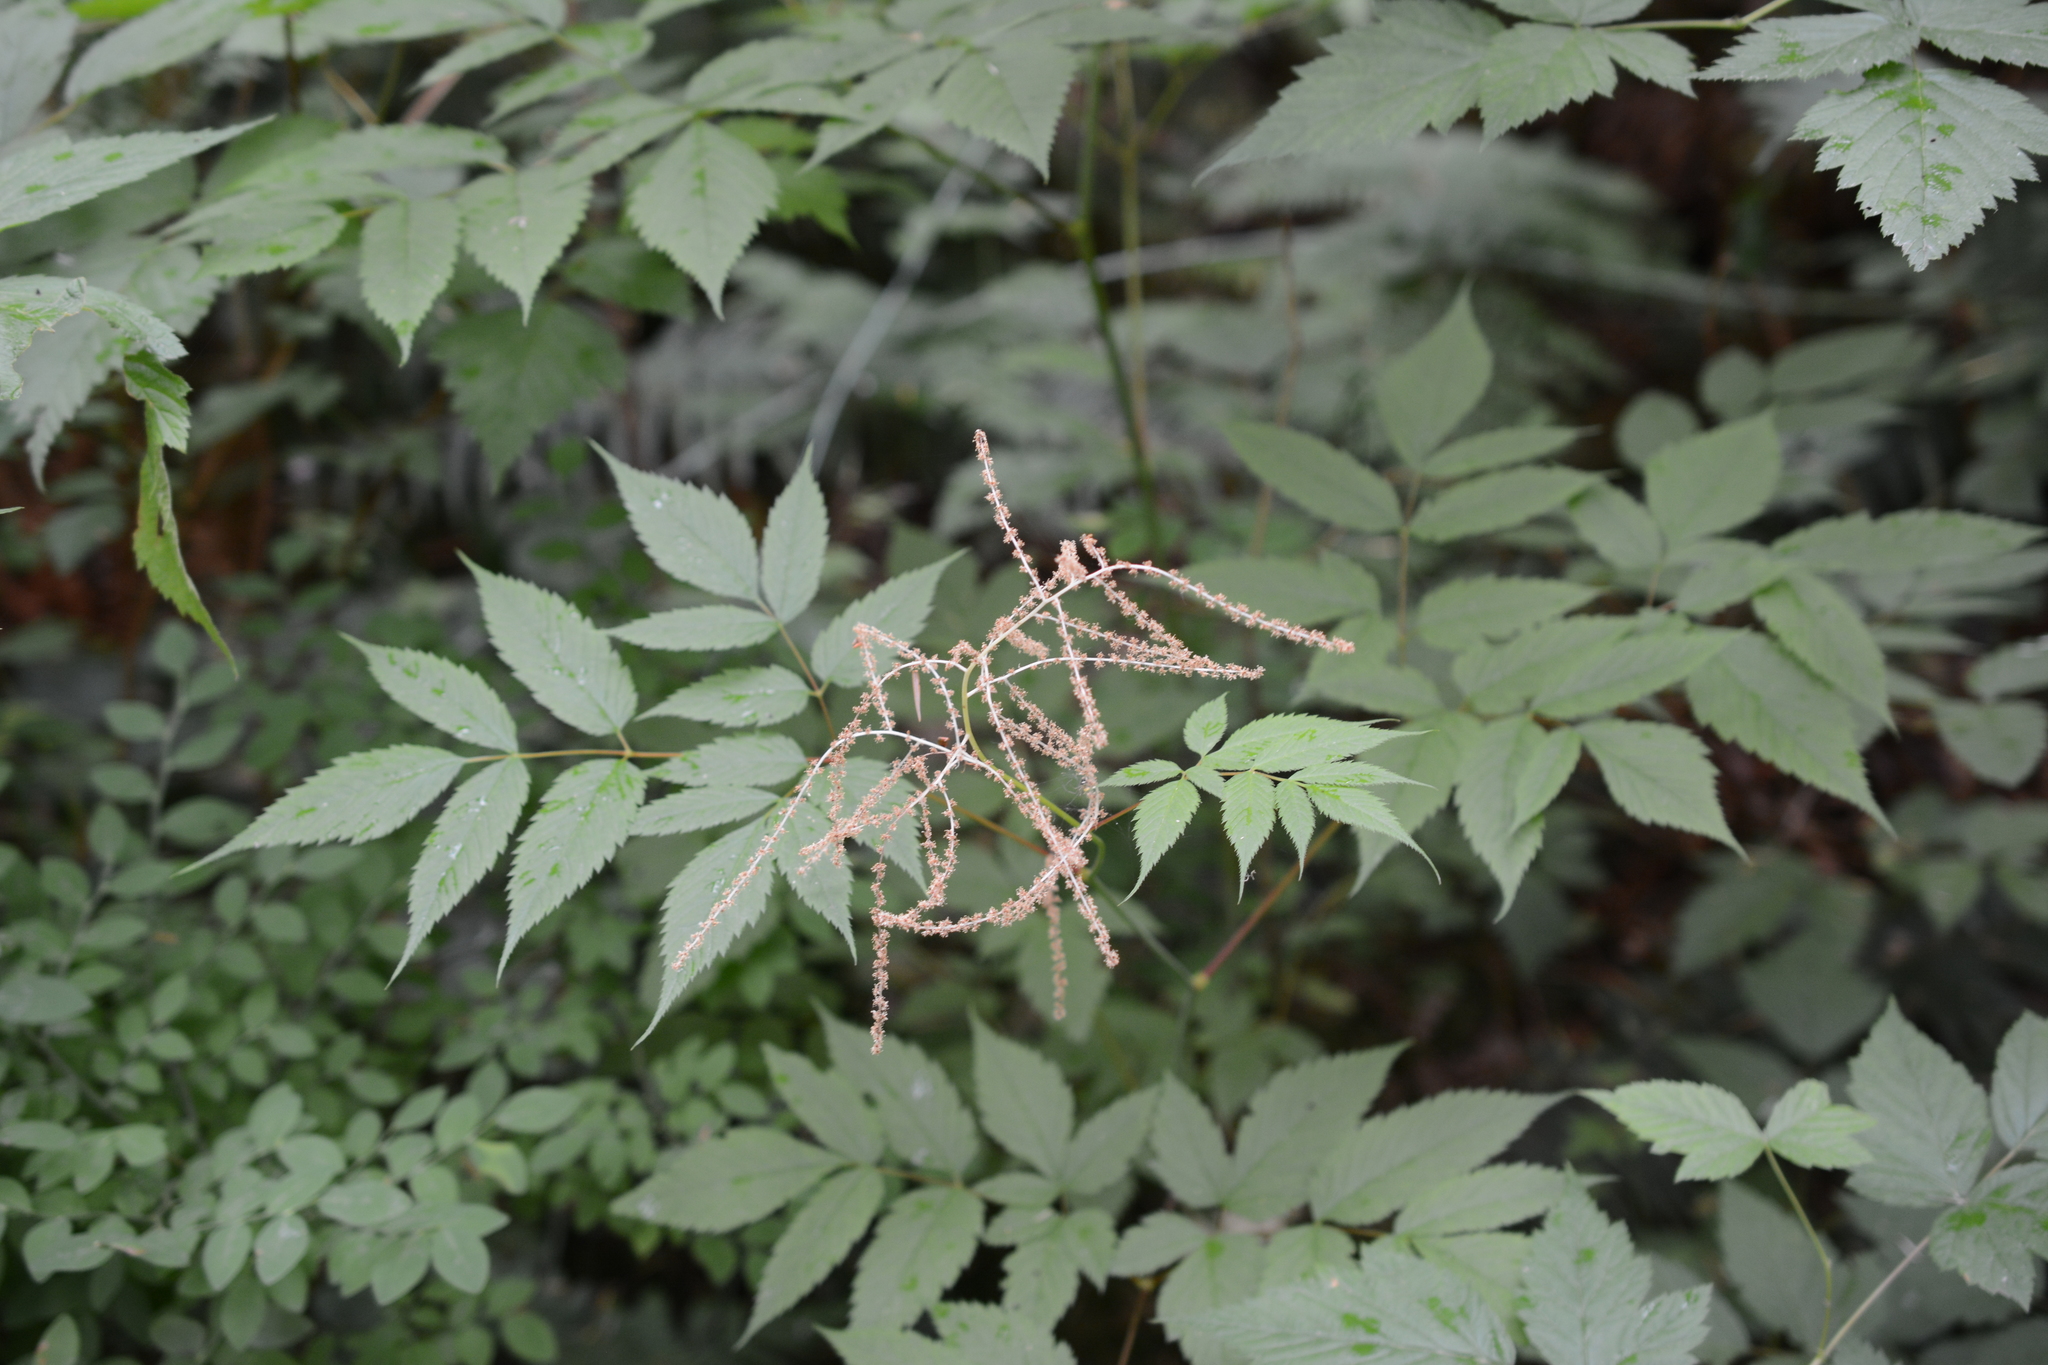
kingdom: Plantae
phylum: Tracheophyta
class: Magnoliopsida
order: Rosales
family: Rosaceae
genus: Aruncus
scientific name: Aruncus dioicus
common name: Buck's-beard
